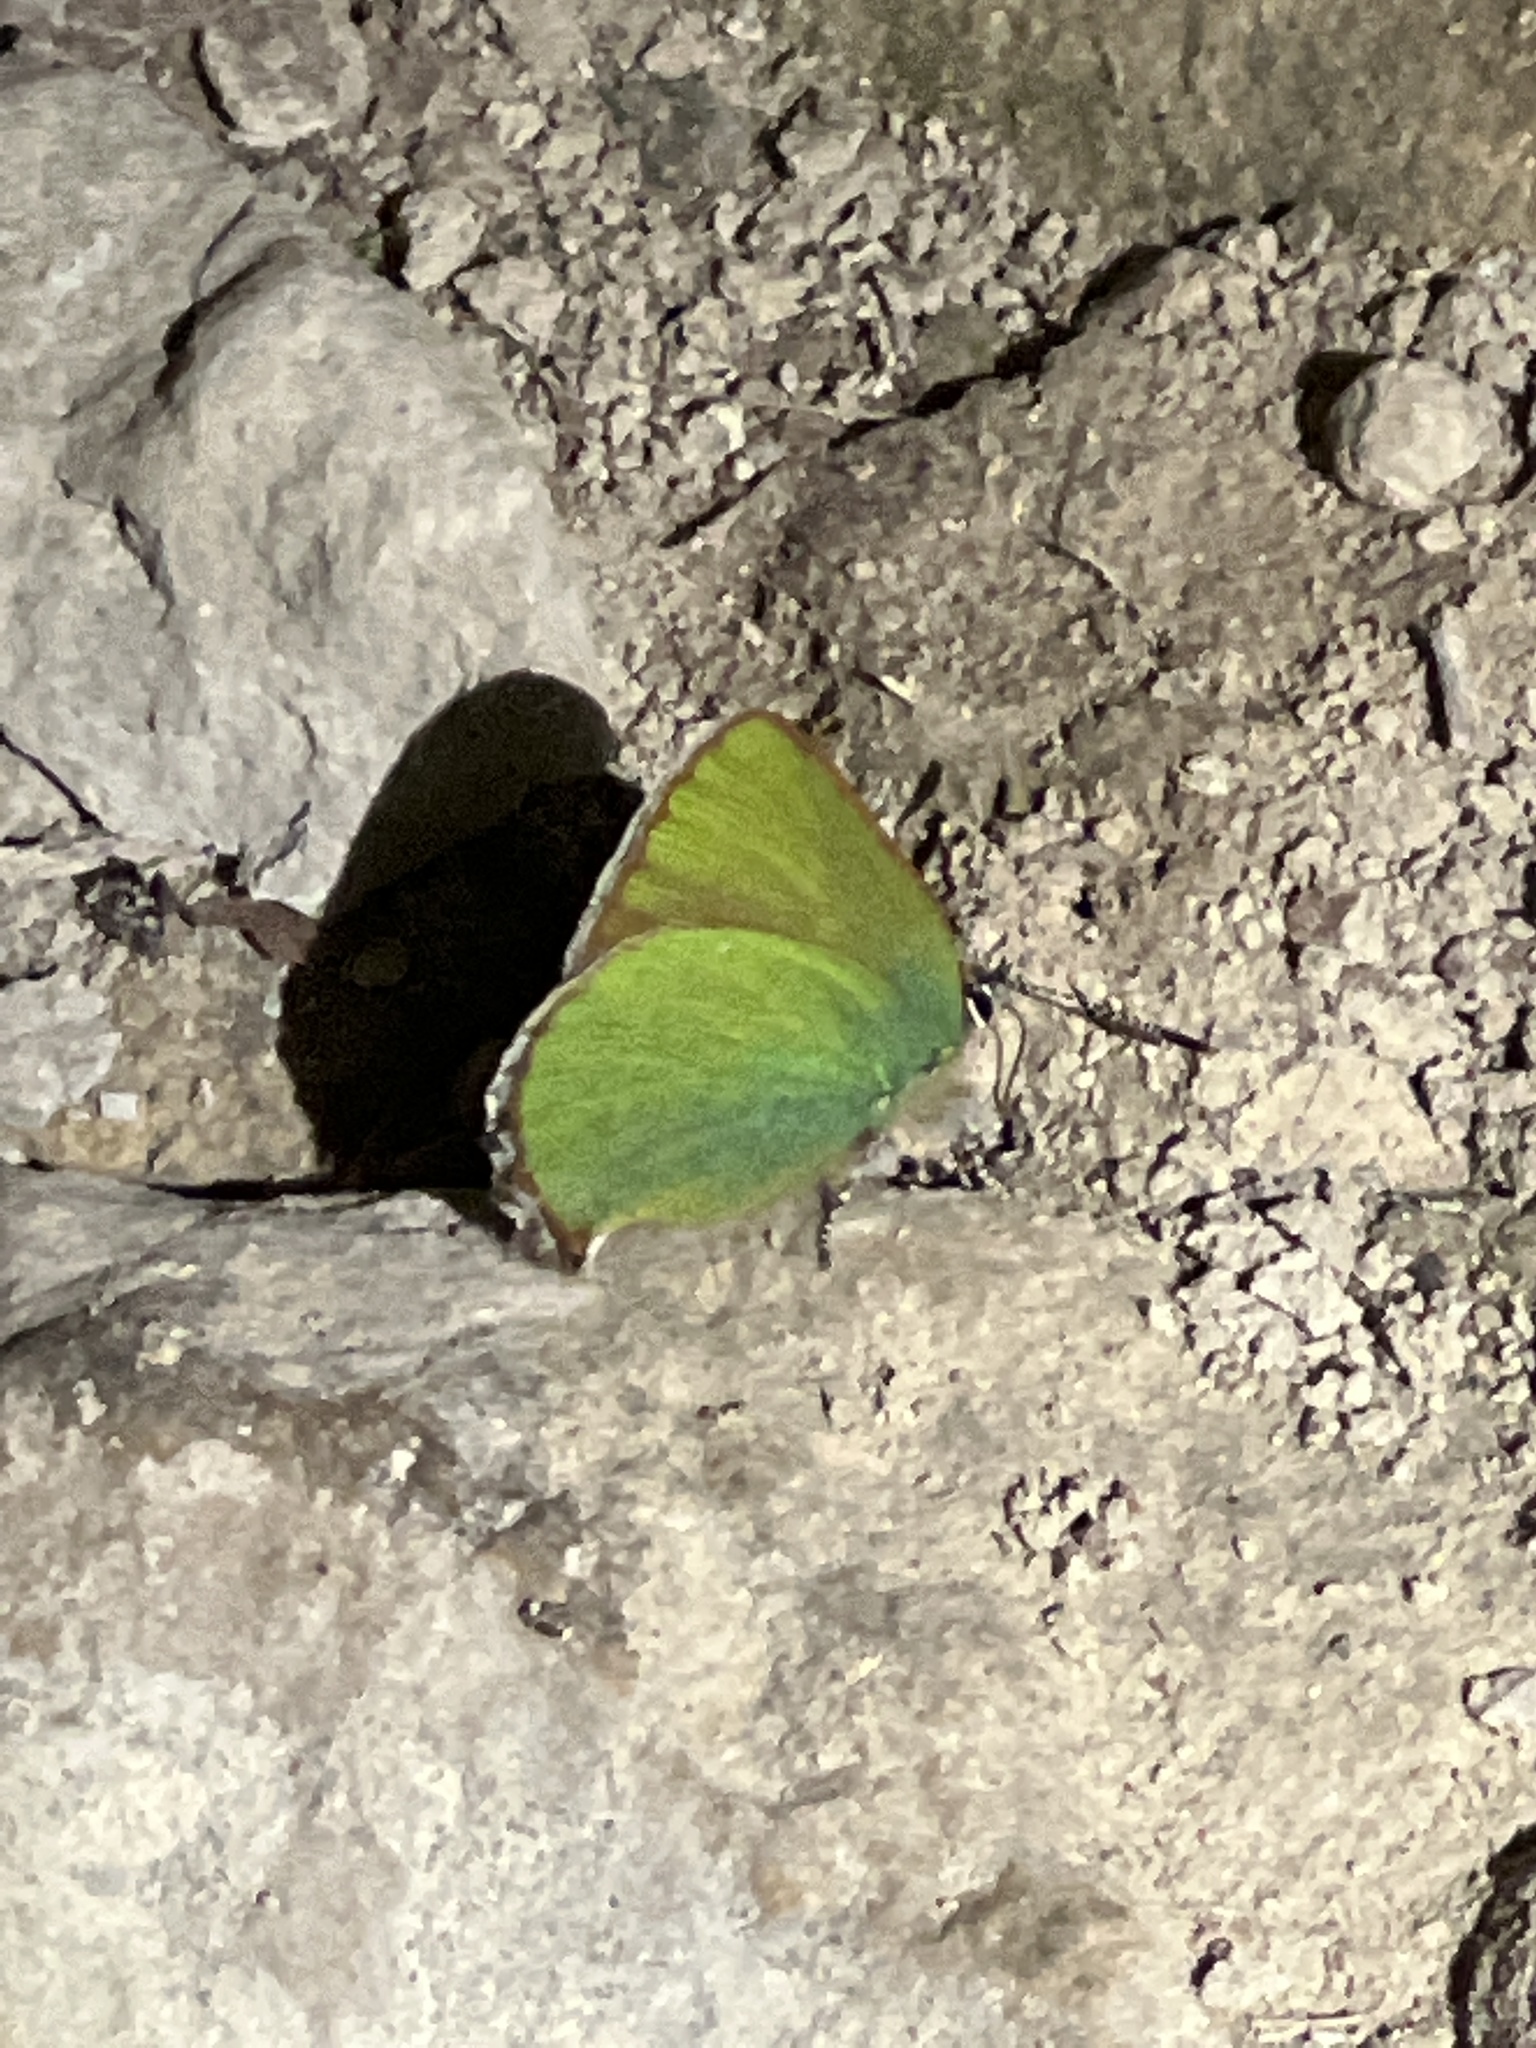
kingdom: Animalia
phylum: Arthropoda
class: Insecta
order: Lepidoptera
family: Lycaenidae
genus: Callophrys
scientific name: Callophrys rubi
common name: Green hairstreak
